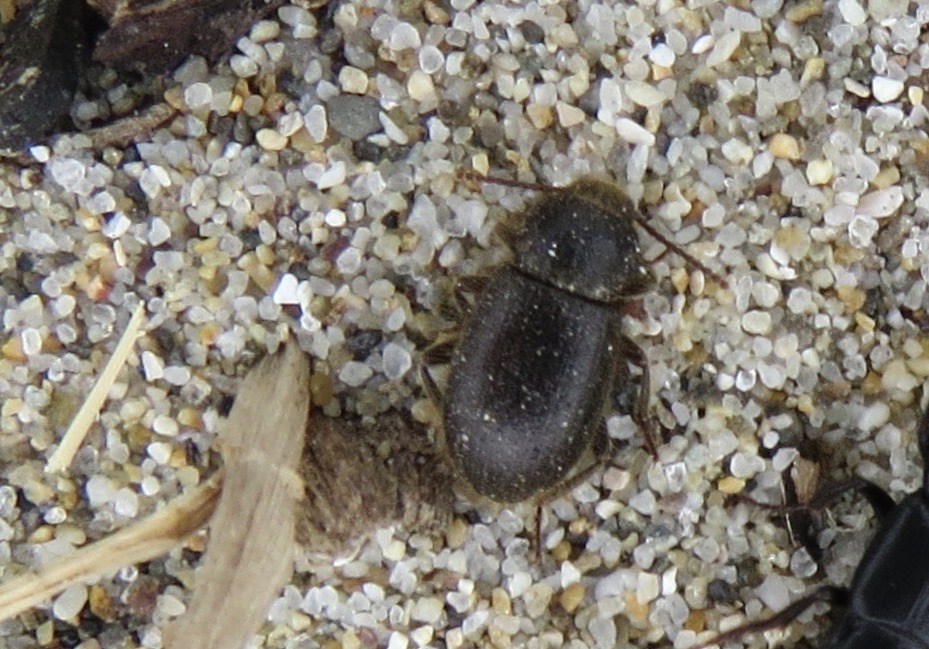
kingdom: Animalia
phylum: Arthropoda
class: Insecta
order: Coleoptera
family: Tenebrionidae
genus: Eleodes
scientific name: Eleodes littoralis
